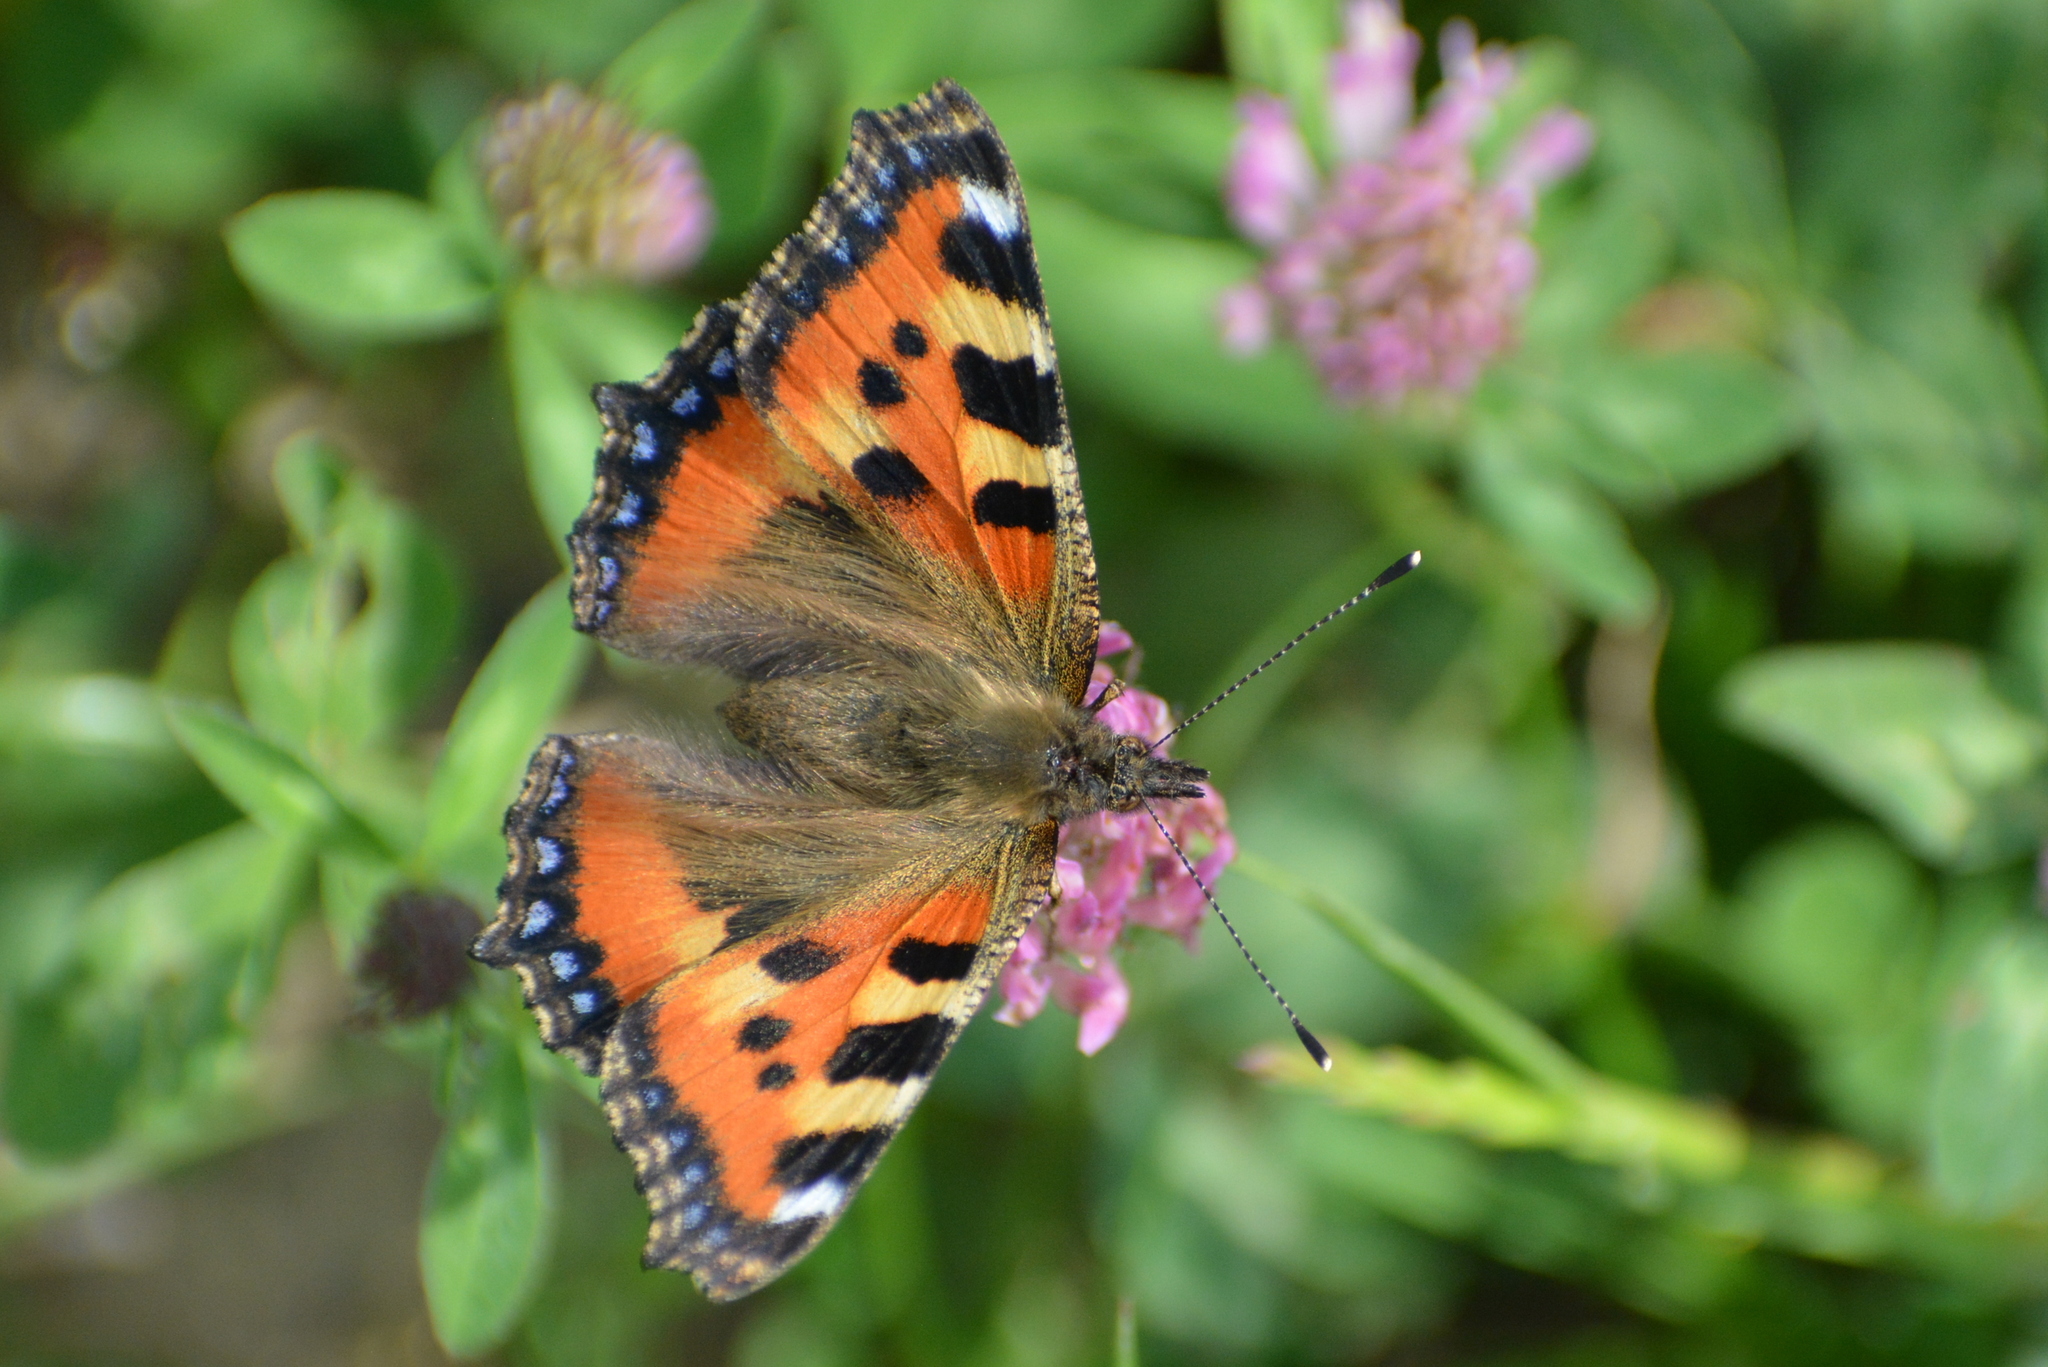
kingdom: Animalia
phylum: Arthropoda
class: Insecta
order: Lepidoptera
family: Nymphalidae
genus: Aglais
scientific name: Aglais urticae
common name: Small tortoiseshell
